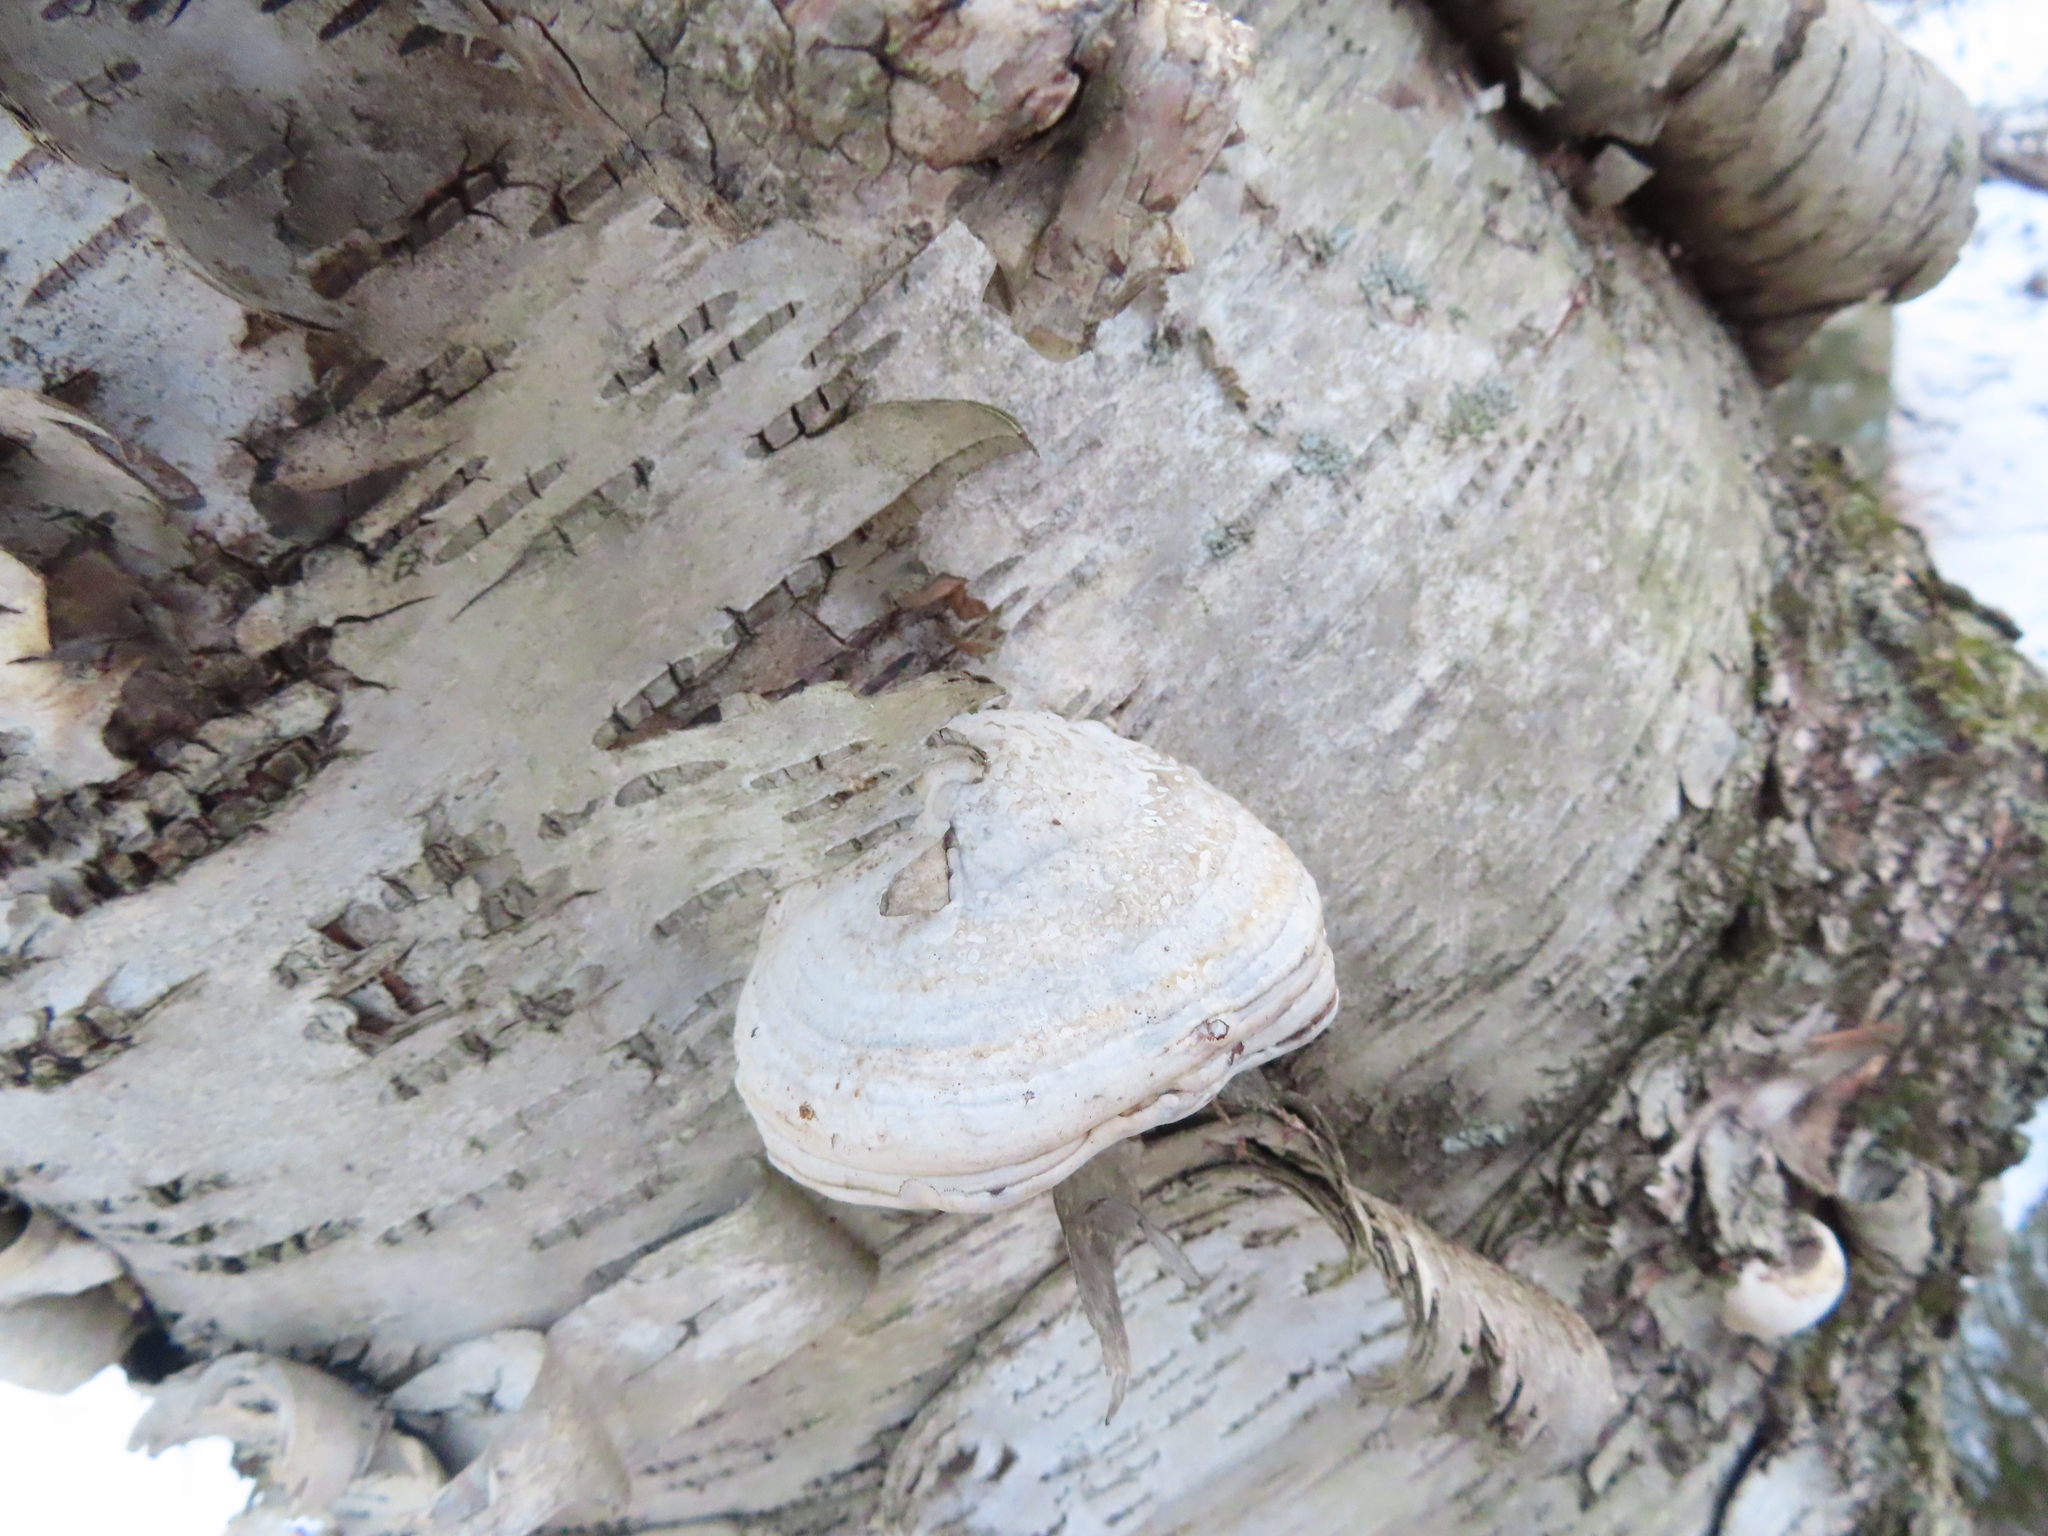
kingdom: Fungi
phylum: Basidiomycota
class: Agaricomycetes
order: Polyporales
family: Polyporaceae
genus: Fomes
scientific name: Fomes fomentarius
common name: Hoof fungus
